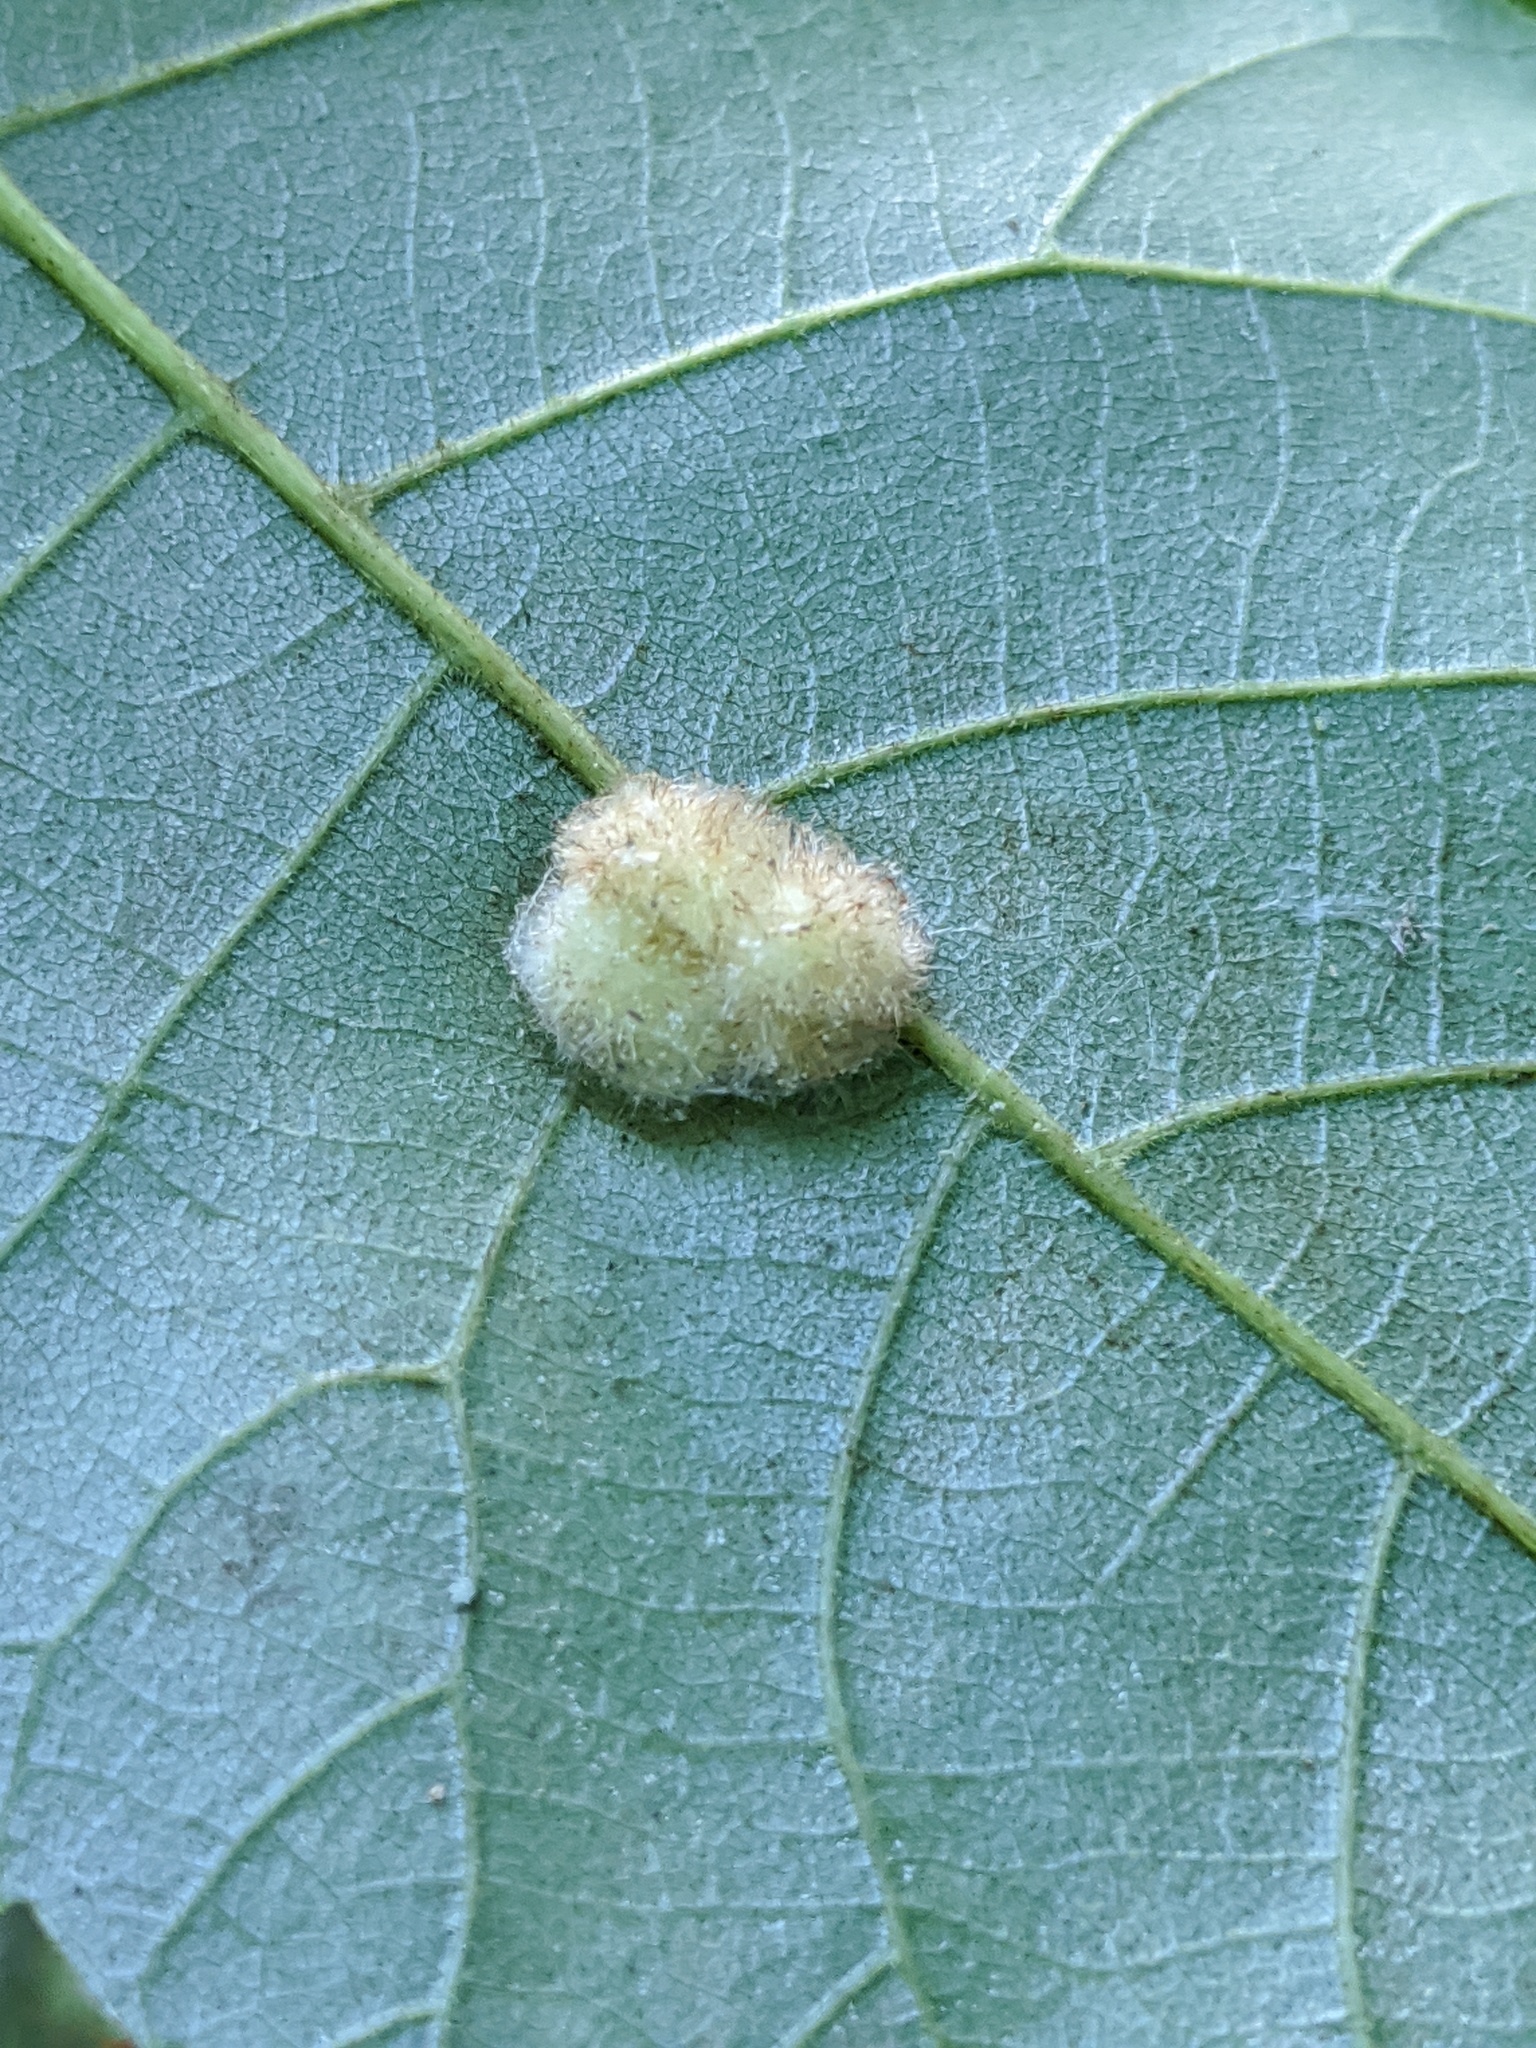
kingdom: Animalia
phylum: Arthropoda
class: Insecta
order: Diptera
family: Cecidomyiidae
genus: Caryomyia
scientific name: Caryomyia aggregata
